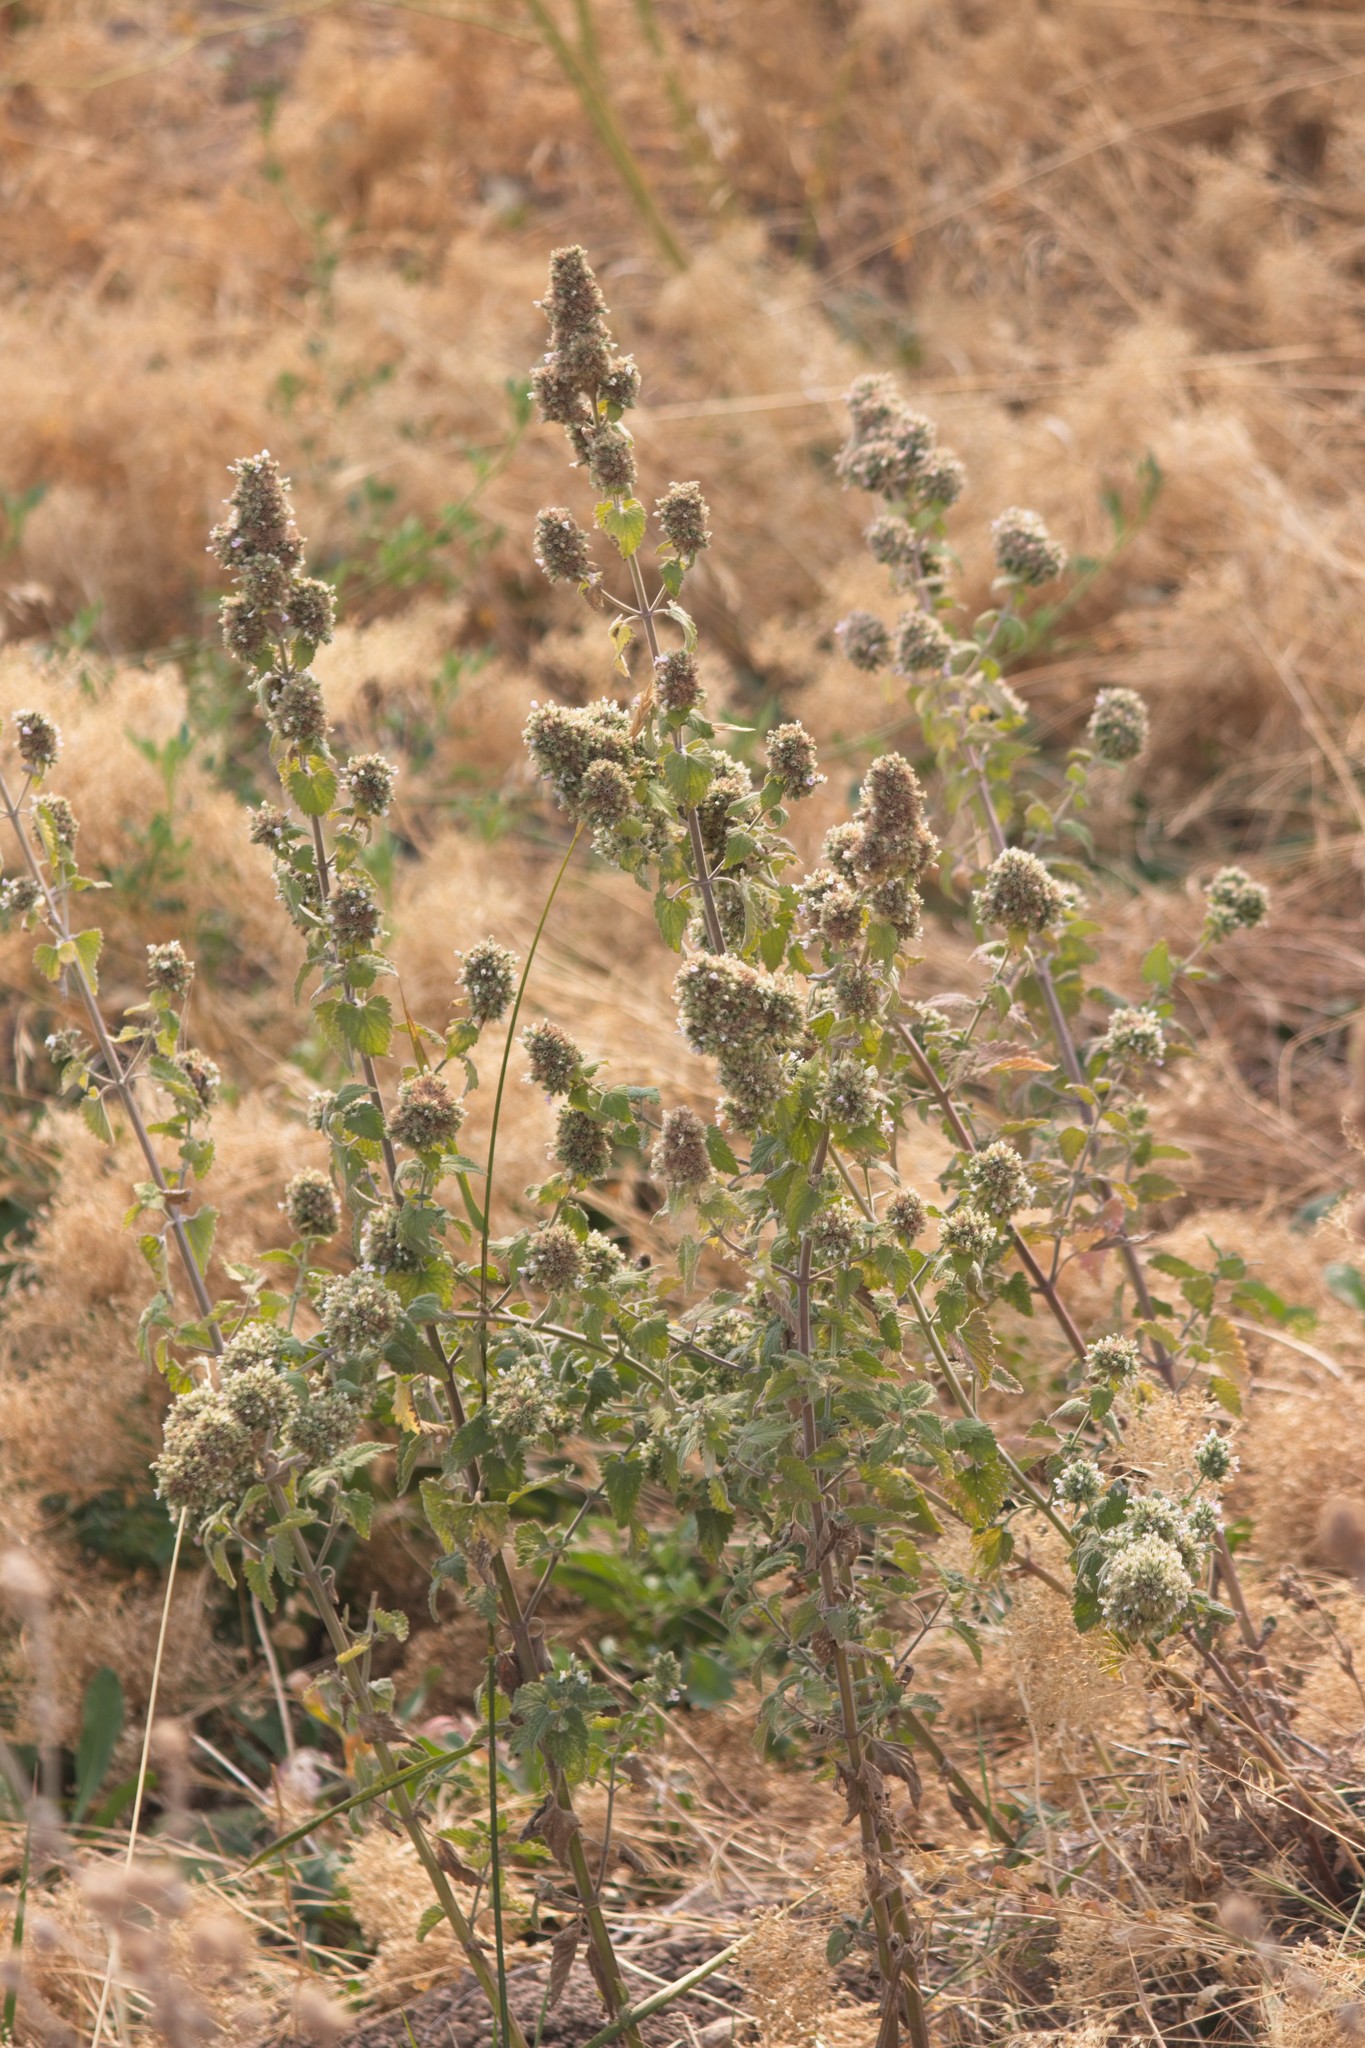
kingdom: Plantae
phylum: Tracheophyta
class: Magnoliopsida
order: Lamiales
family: Lamiaceae
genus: Nepeta
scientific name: Nepeta cataria
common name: Catnip
